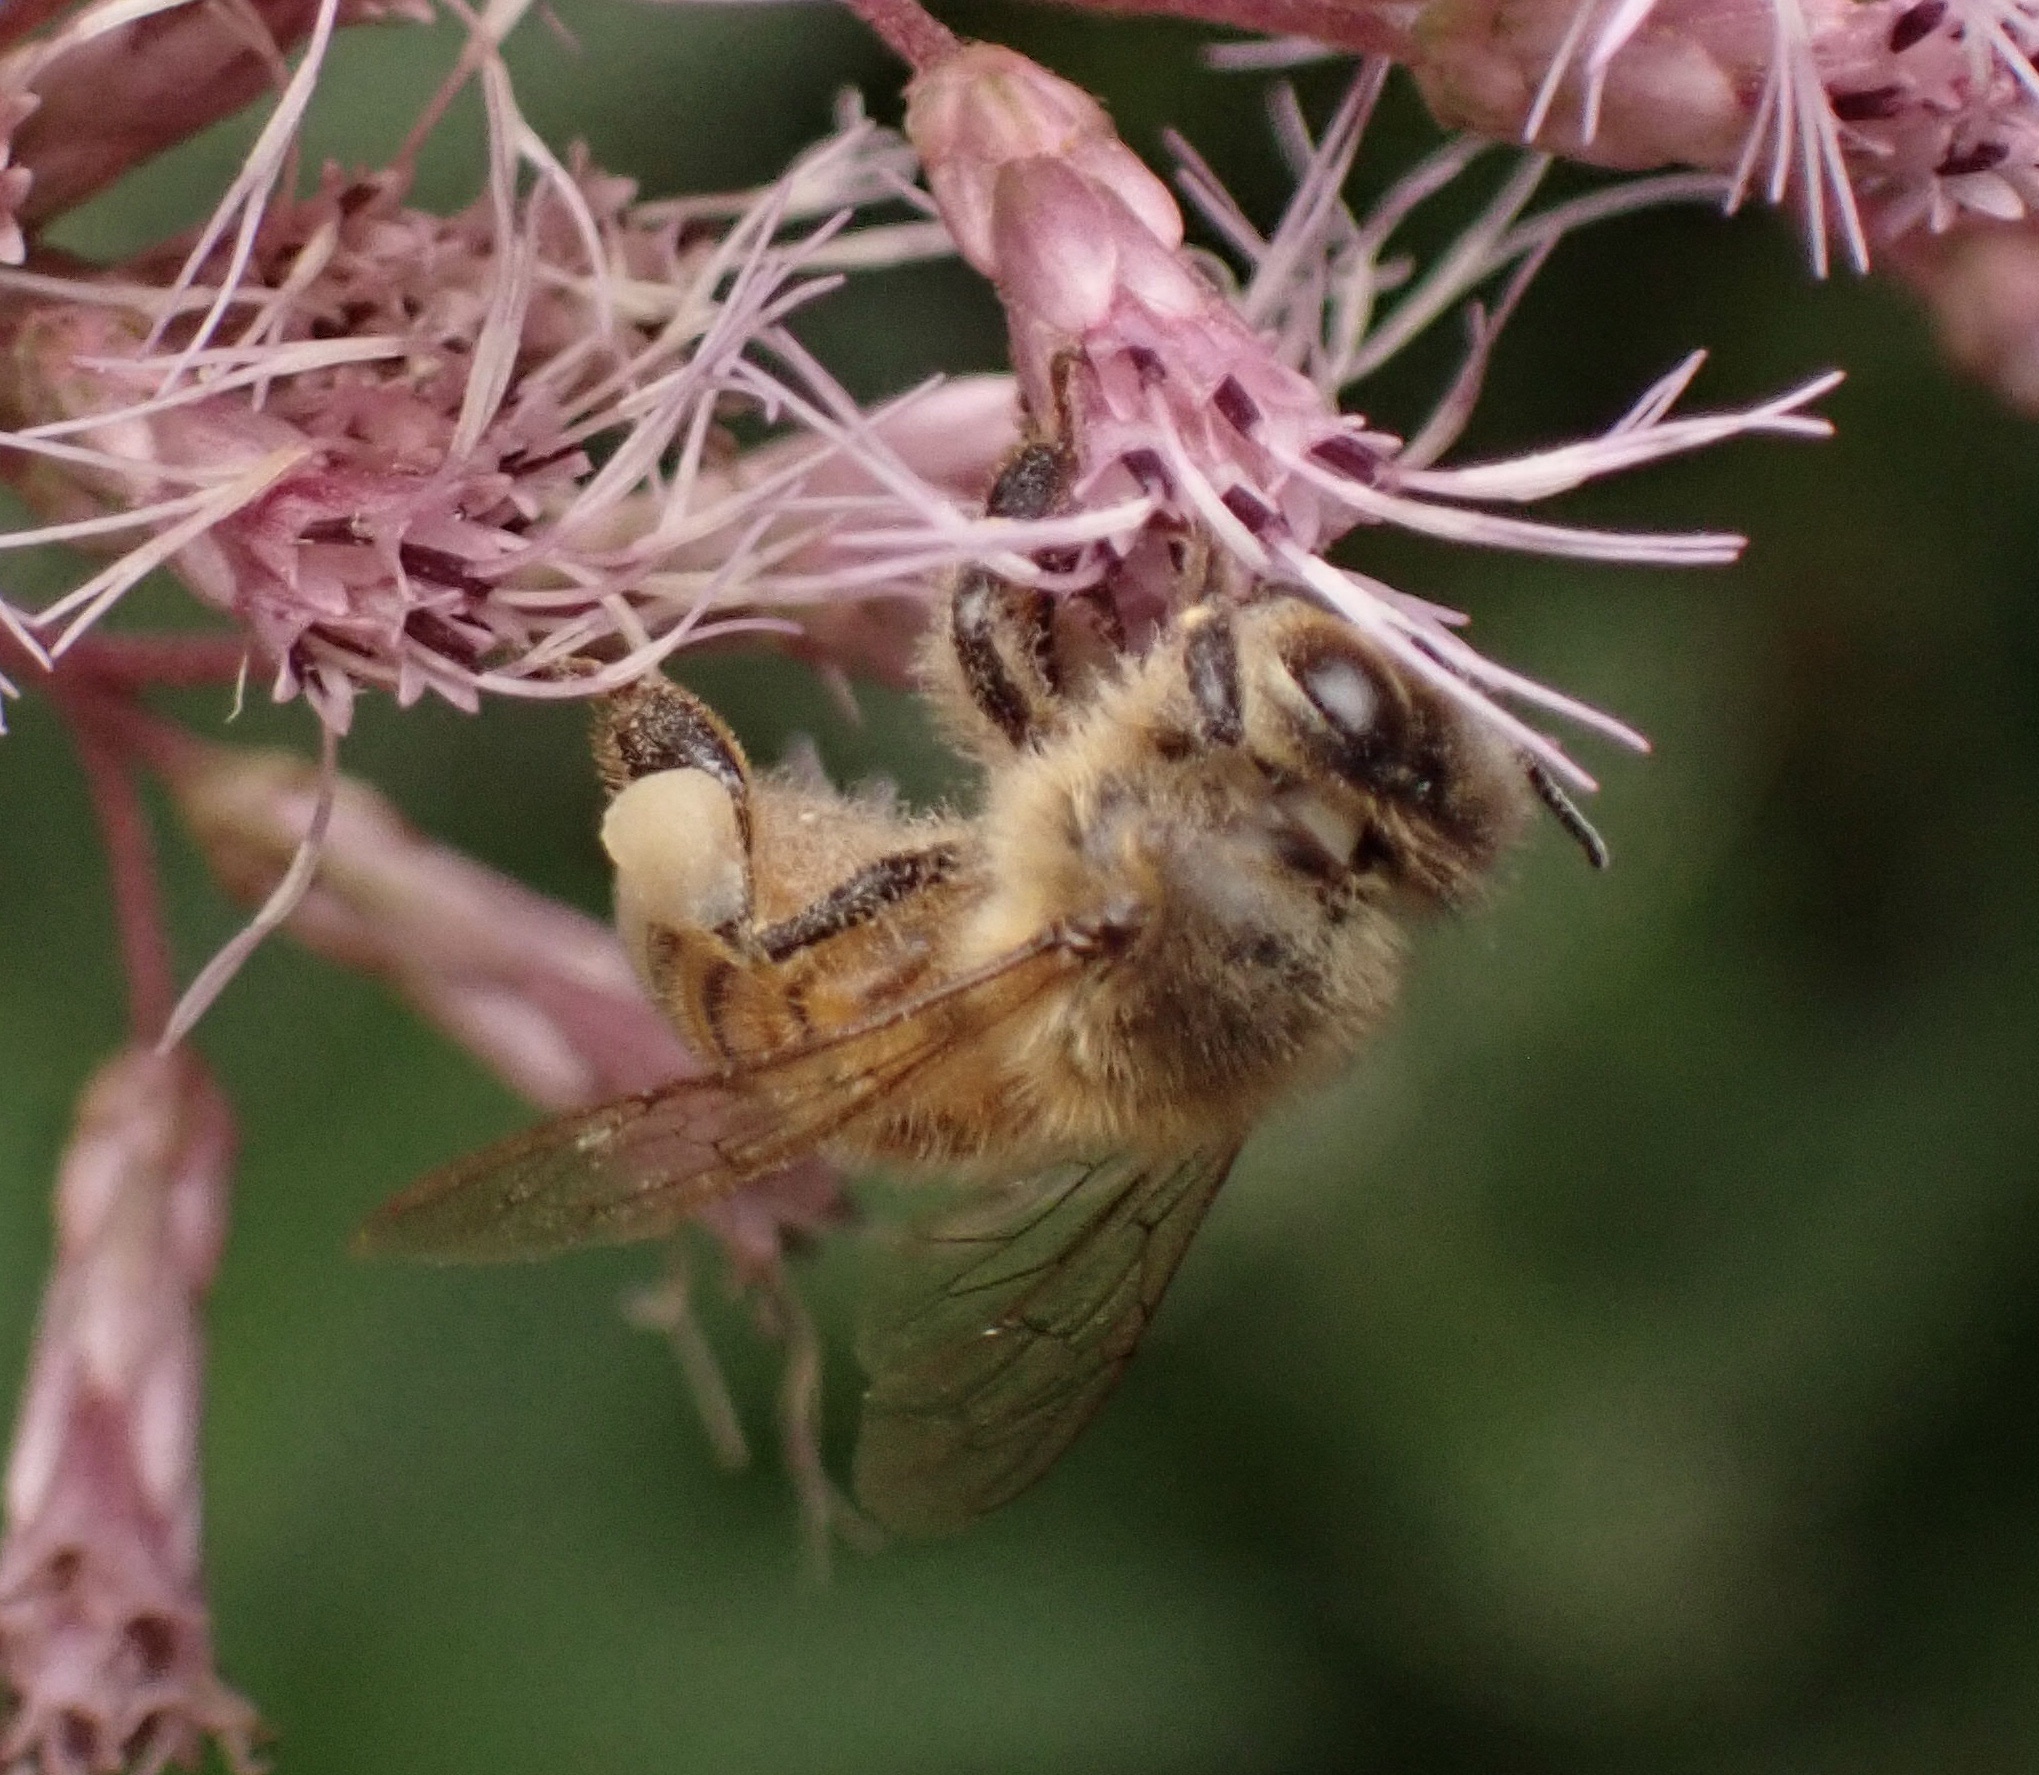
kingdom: Animalia
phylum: Arthropoda
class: Insecta
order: Hymenoptera
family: Apidae
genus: Apis
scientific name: Apis mellifera
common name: Honey bee
